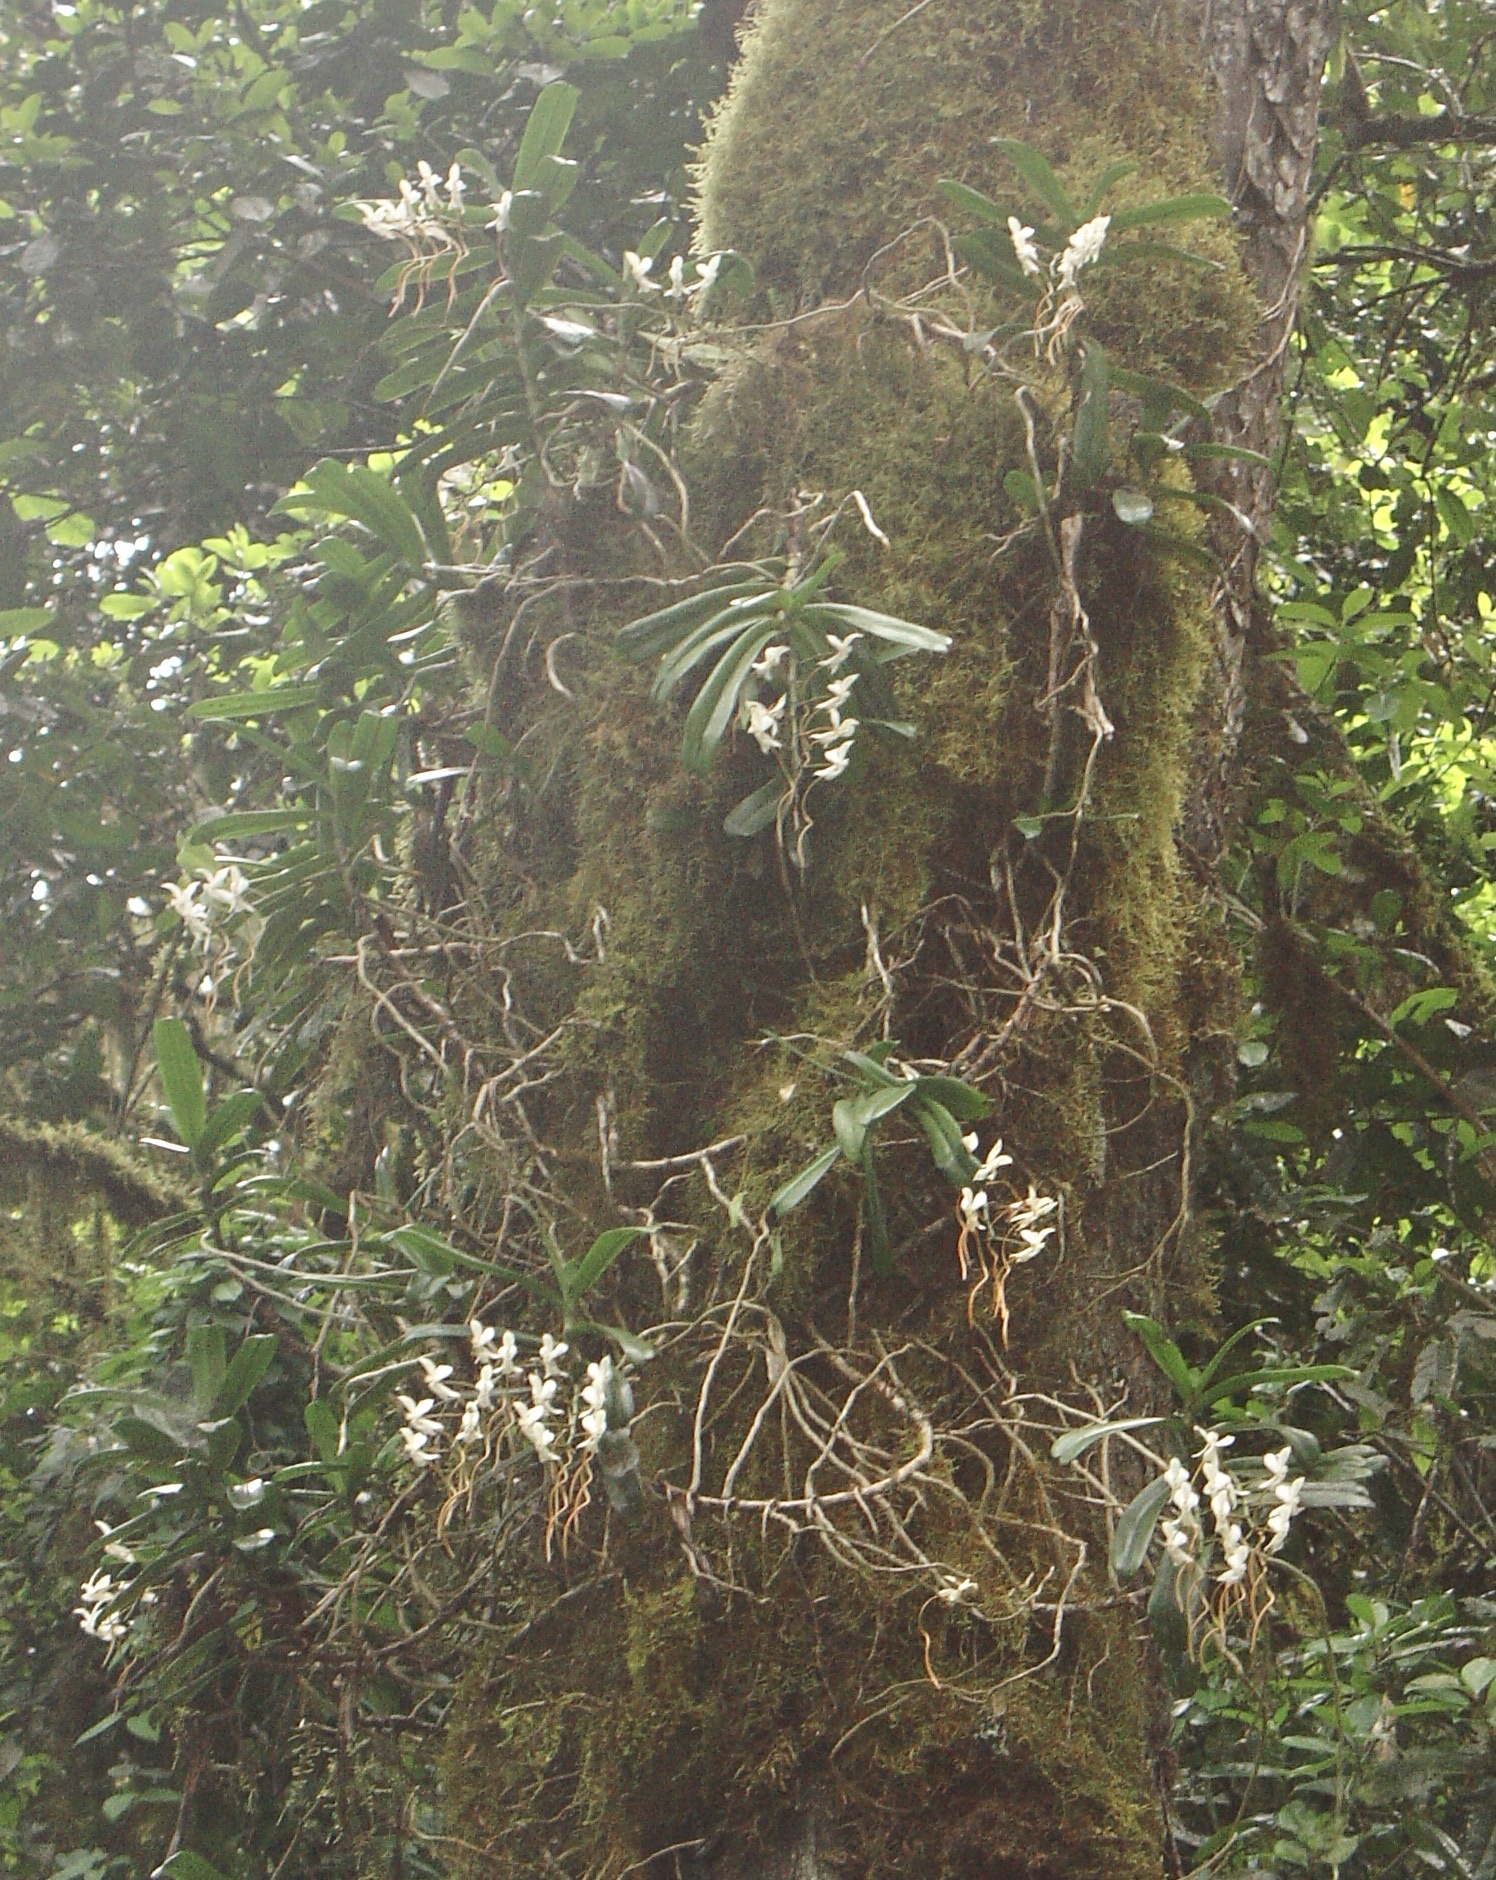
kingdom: Plantae
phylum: Tracheophyta
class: Liliopsida
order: Asparagales
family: Orchidaceae
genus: Aerangis
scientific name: Aerangis thomsonii
